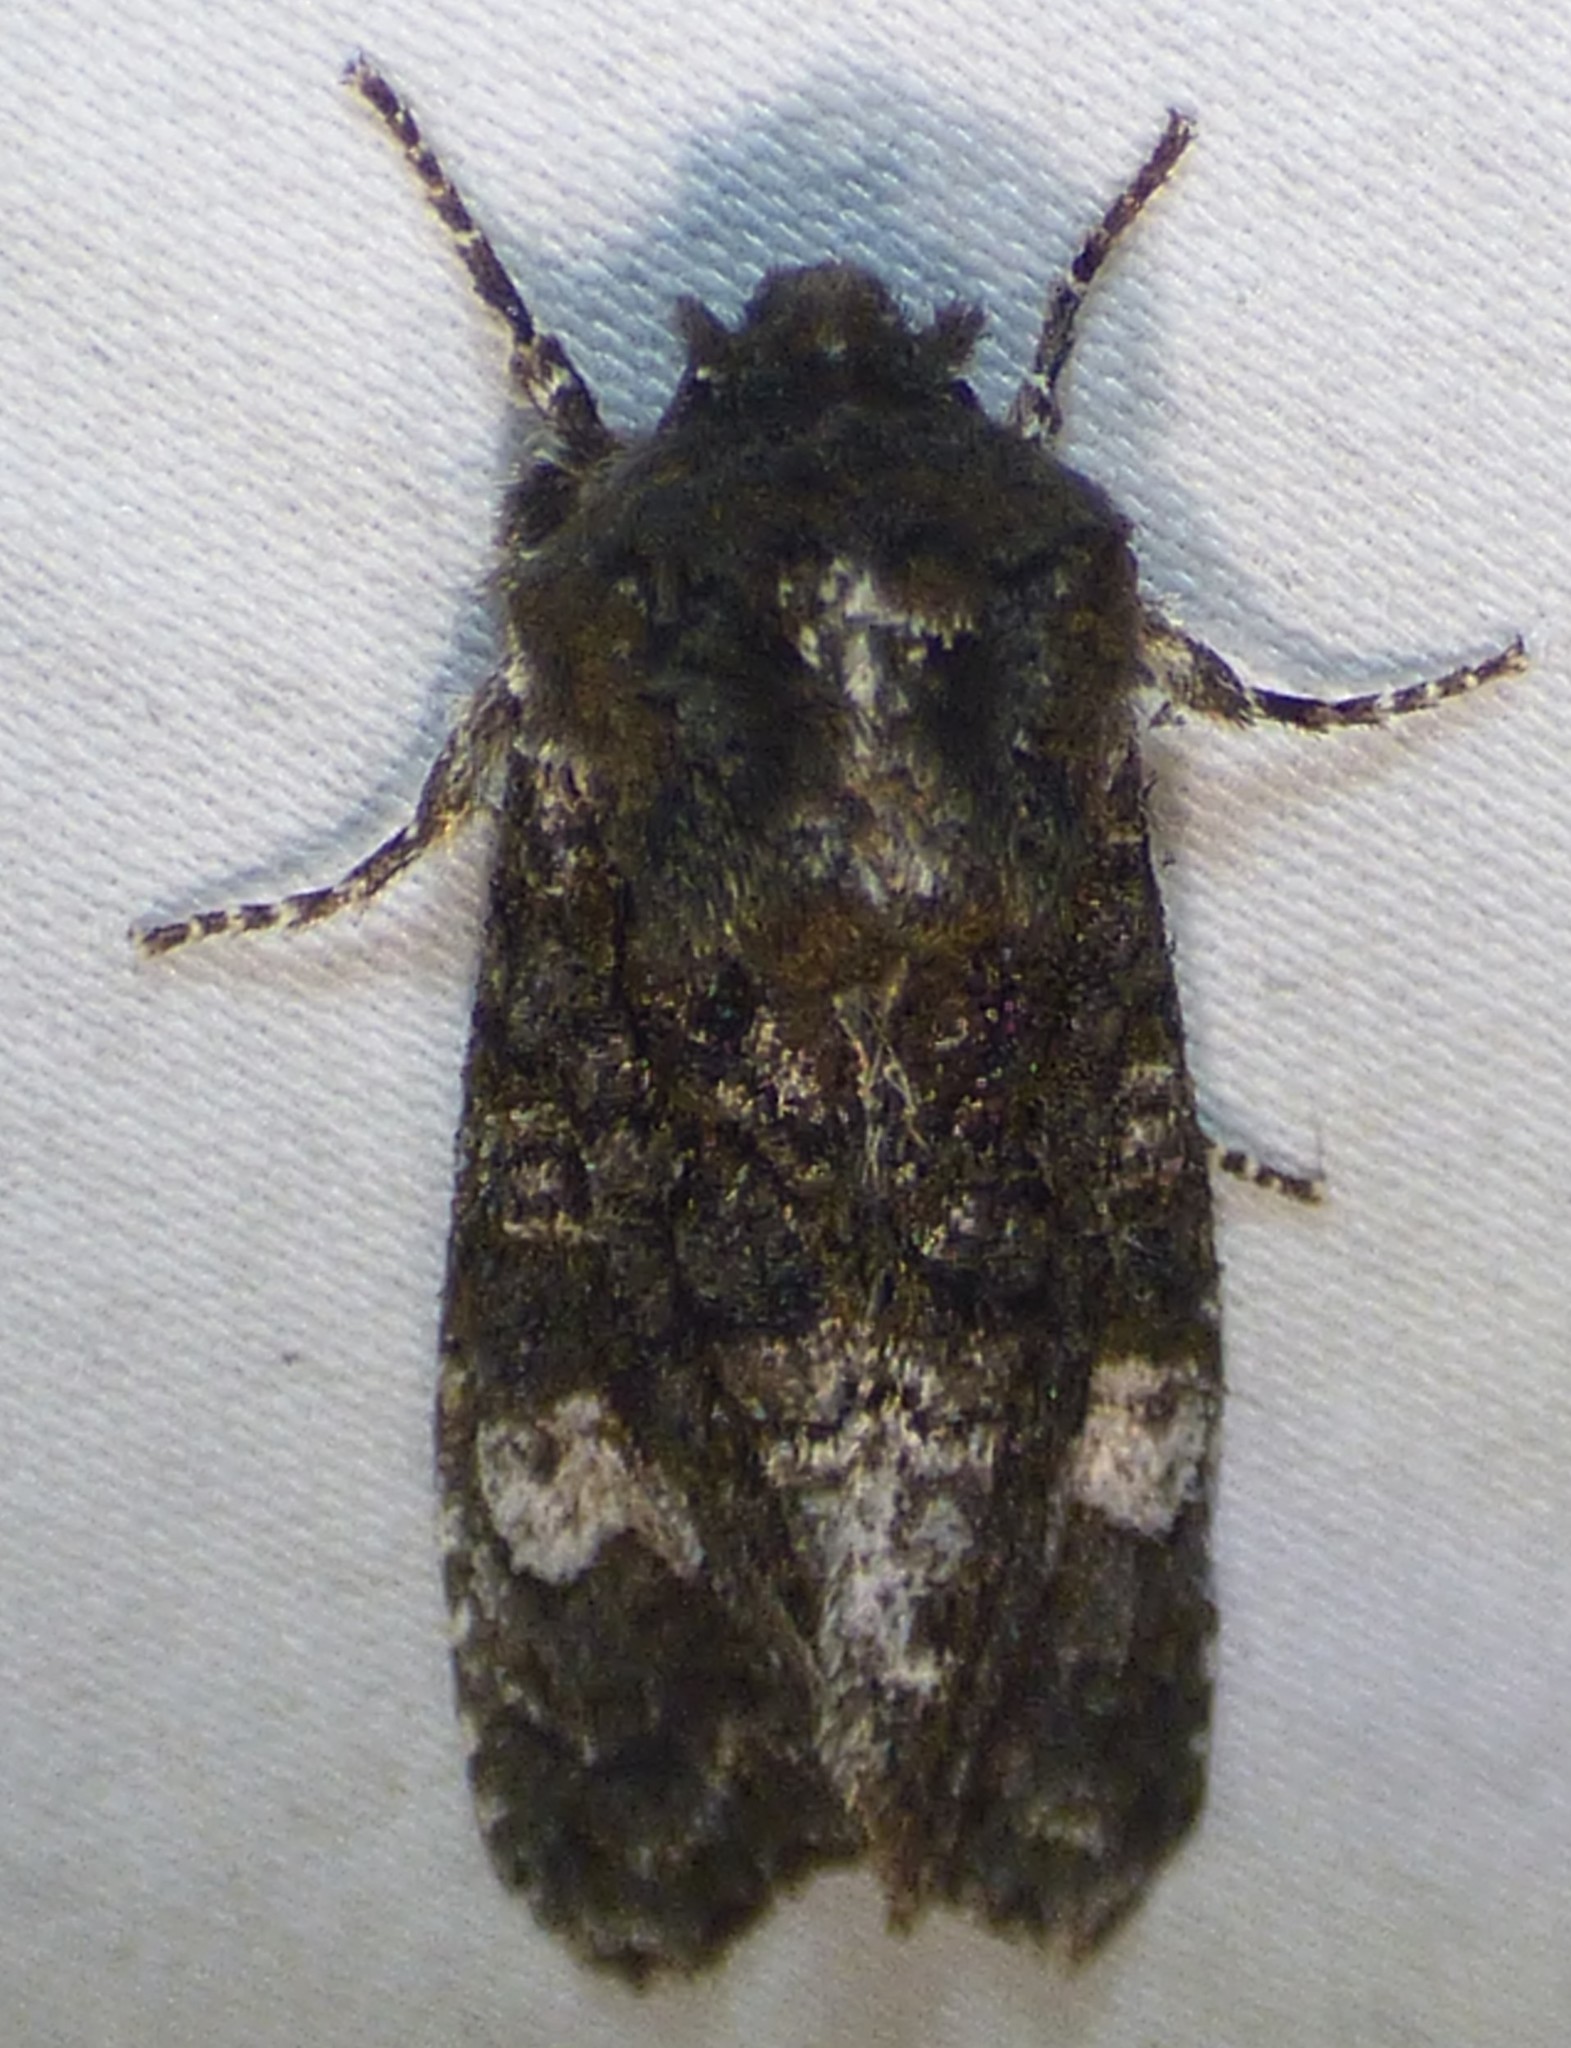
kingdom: Animalia
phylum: Arthropoda
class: Insecta
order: Lepidoptera
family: Noctuidae
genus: Psaphida
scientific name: Psaphida grotei
